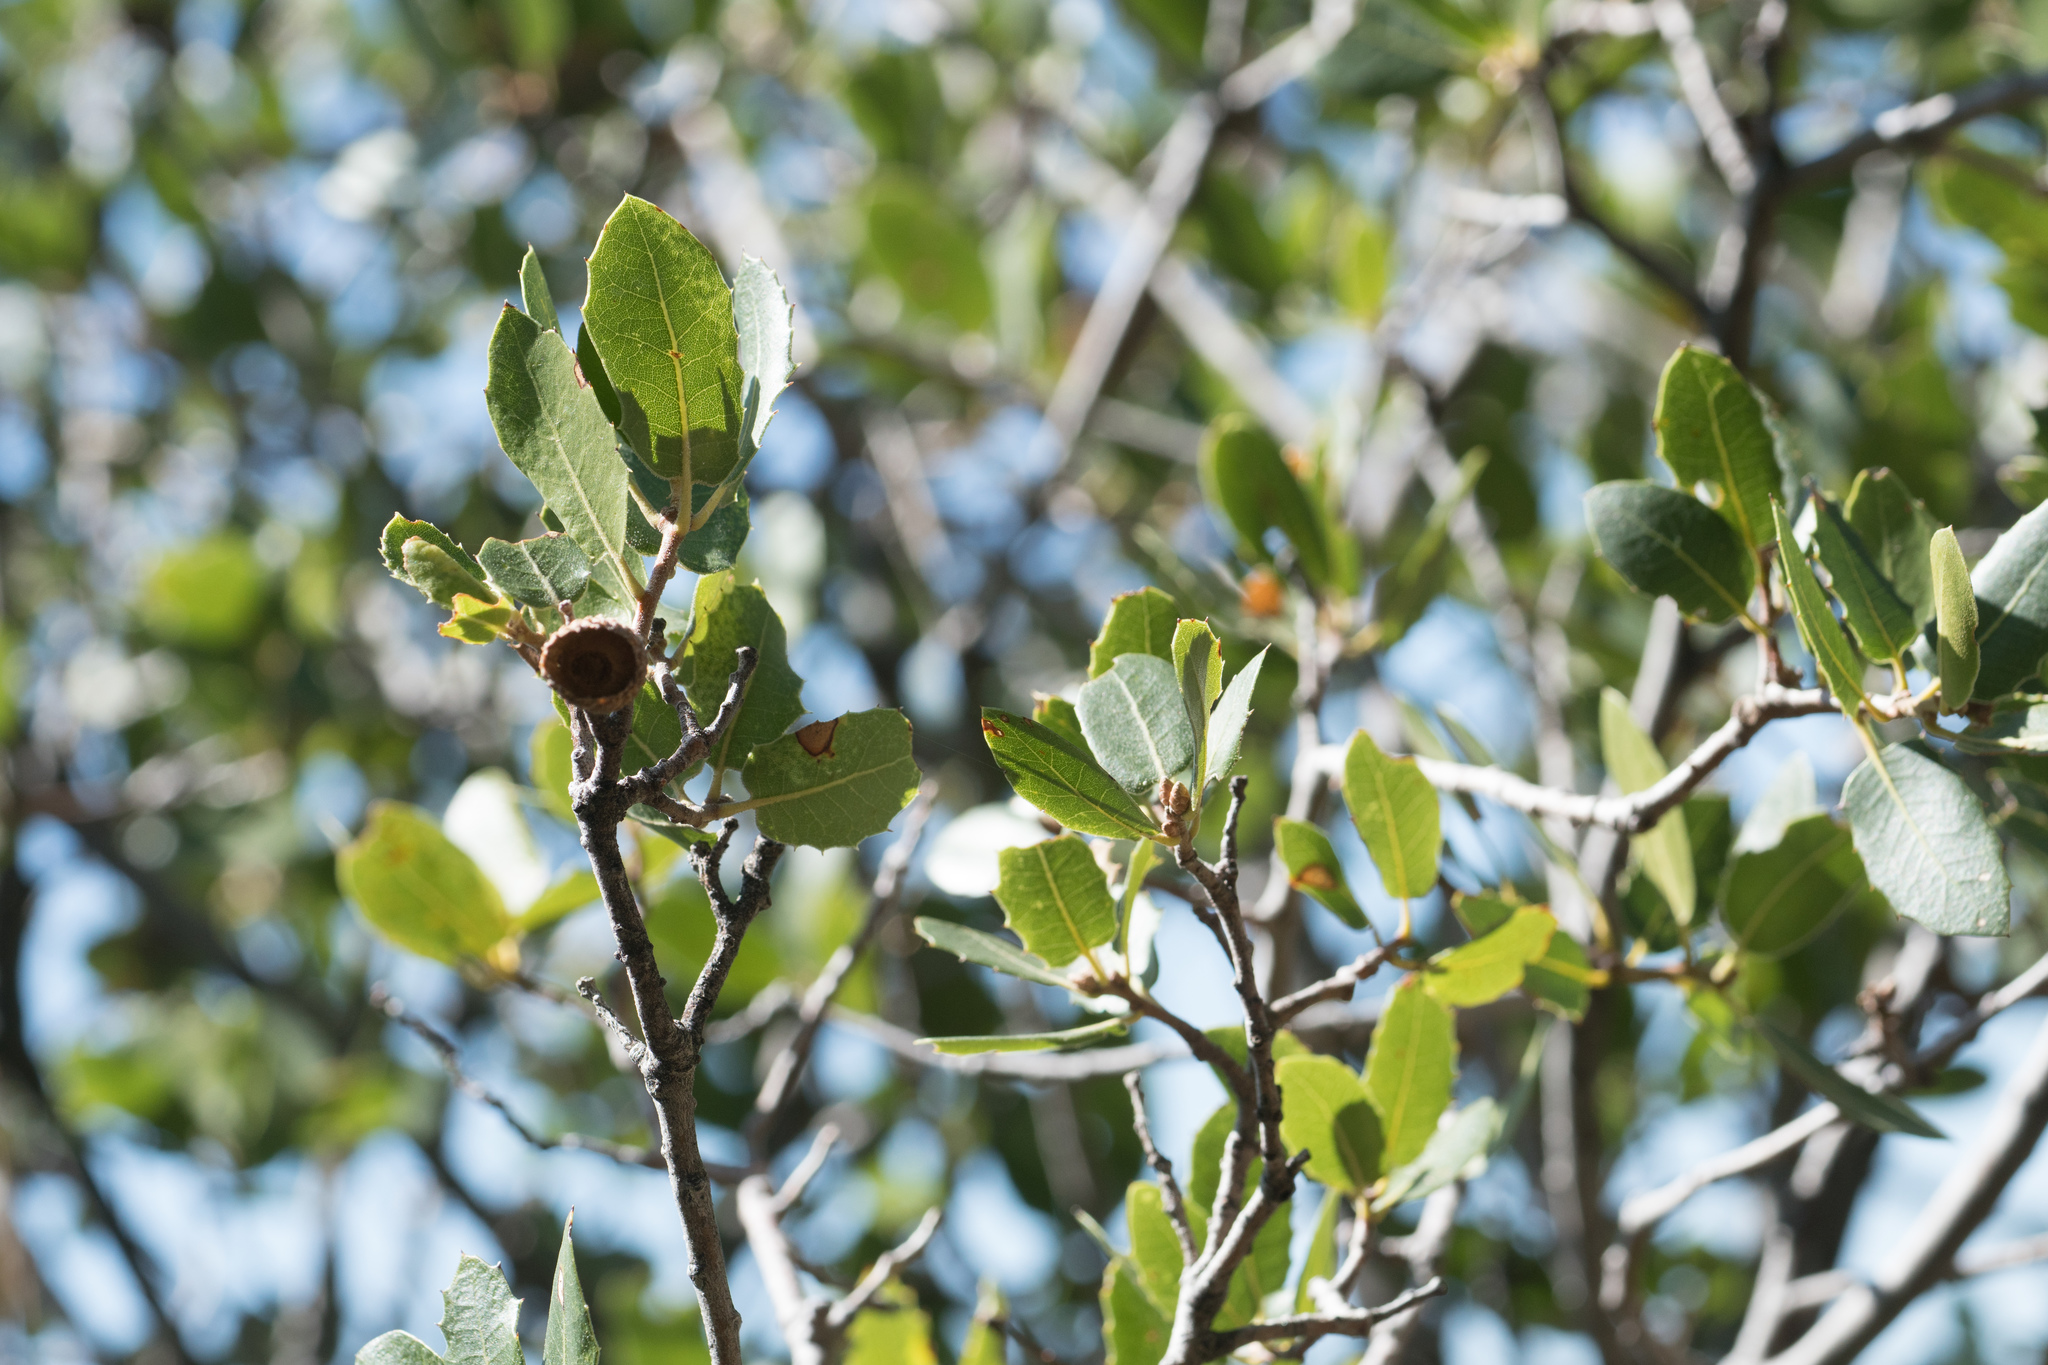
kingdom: Plantae
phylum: Tracheophyta
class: Magnoliopsida
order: Fagales
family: Fagaceae
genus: Quercus
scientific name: Quercus wislizeni
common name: Interior live oak
